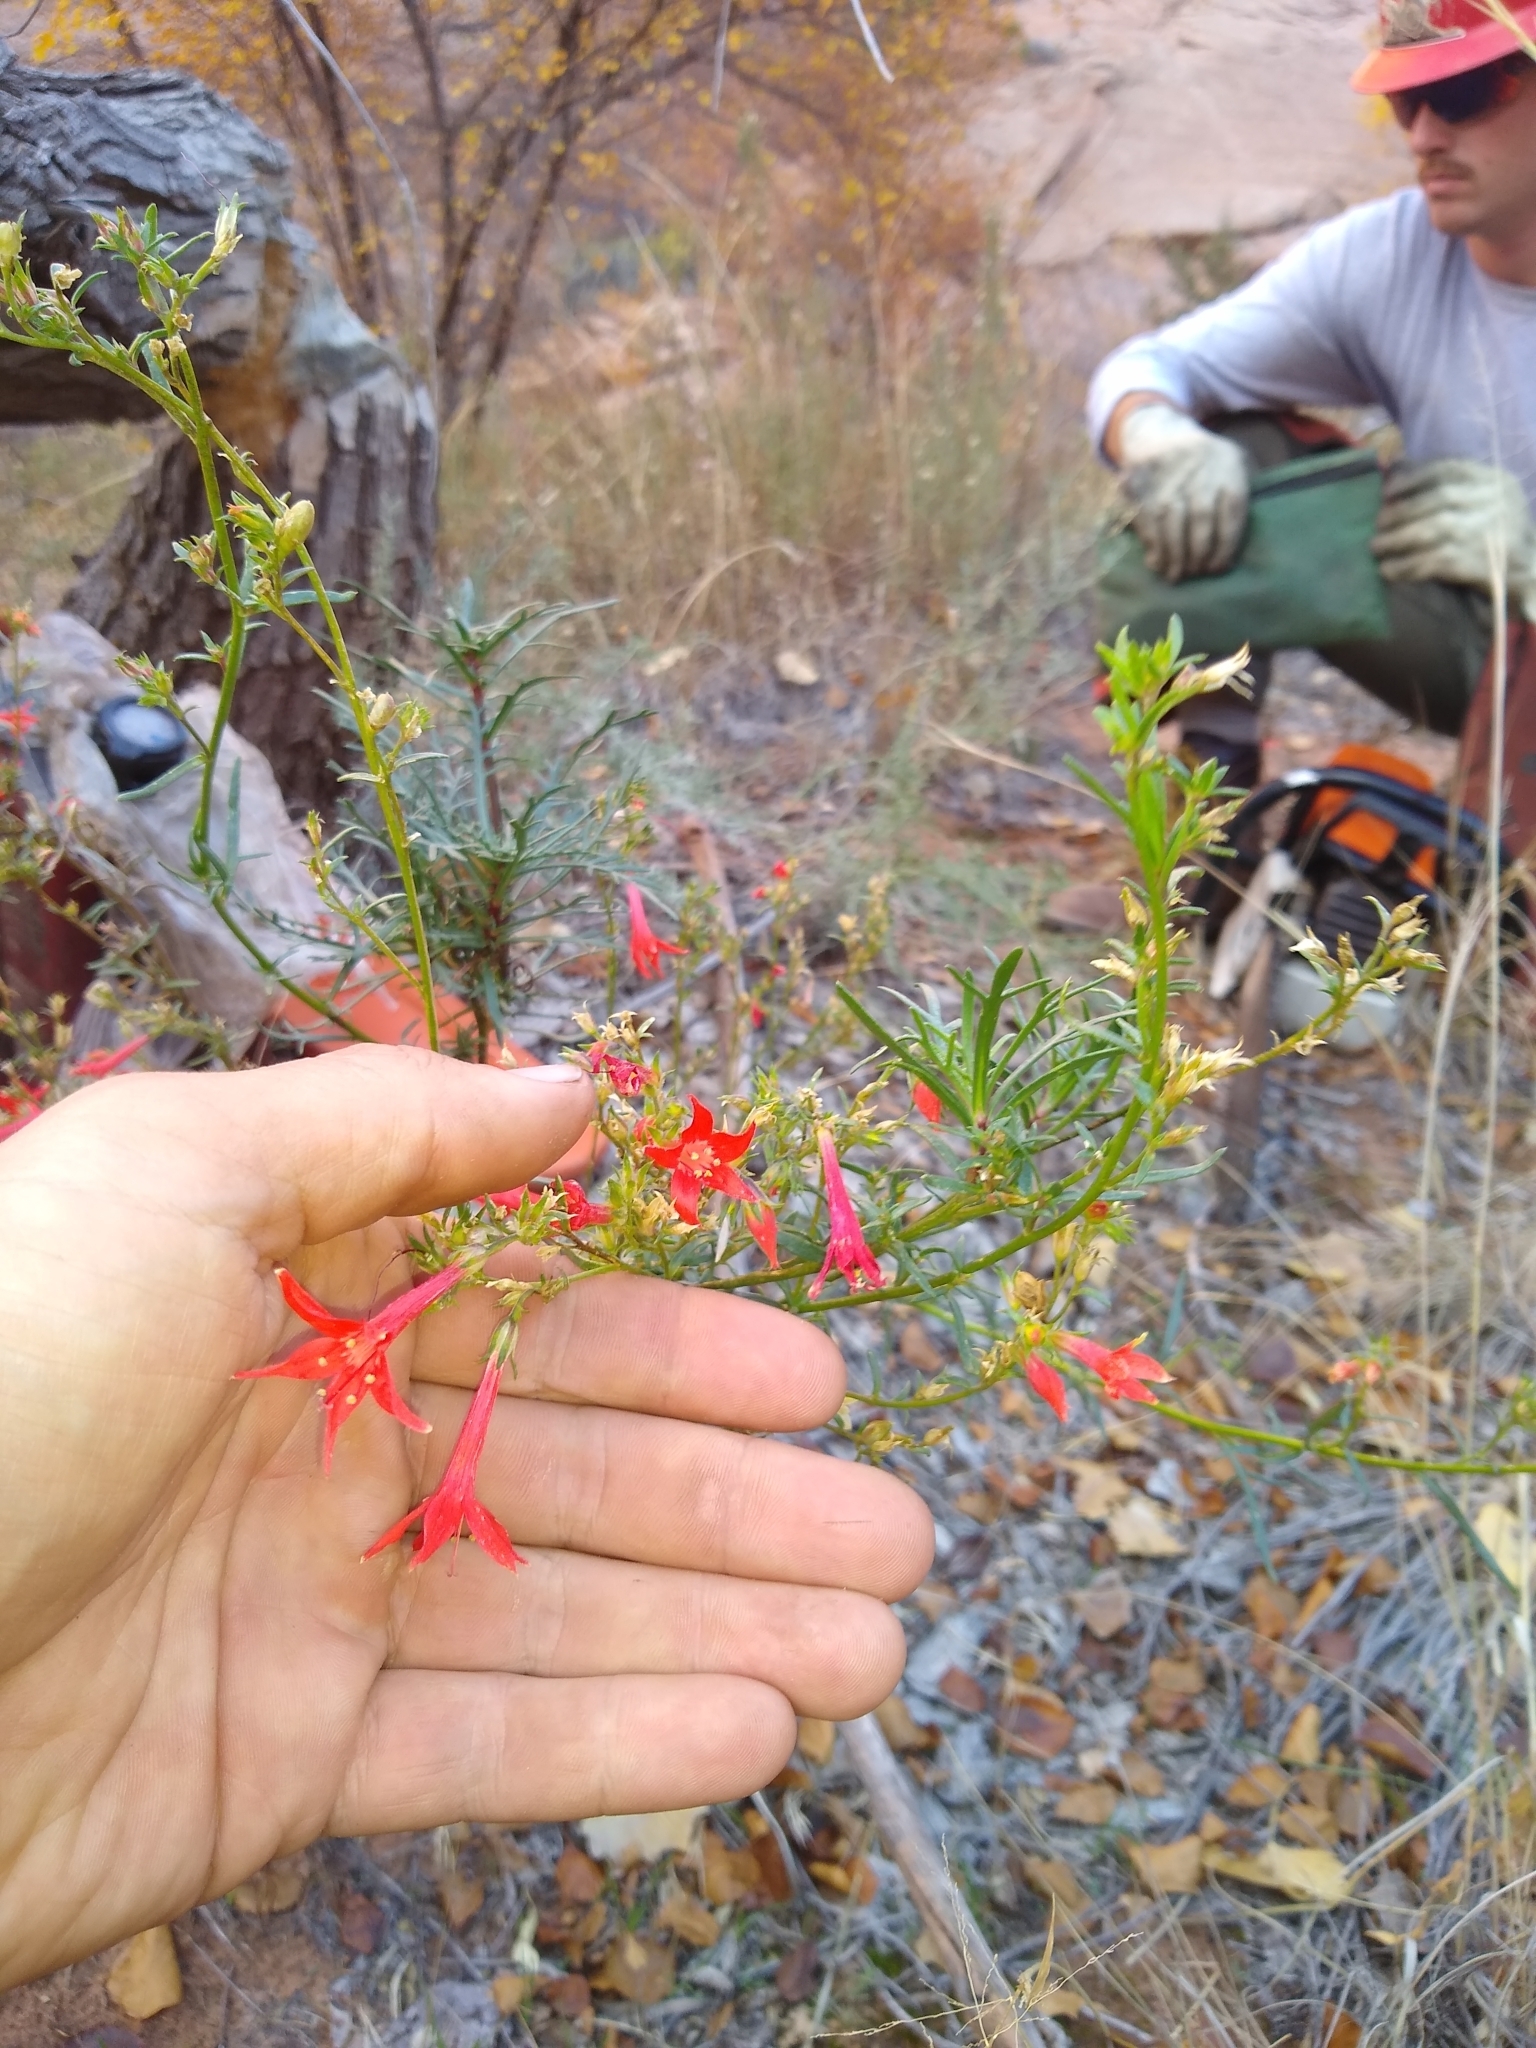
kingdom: Plantae
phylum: Tracheophyta
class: Magnoliopsida
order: Ericales
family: Polemoniaceae
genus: Ipomopsis
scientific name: Ipomopsis aggregata
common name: Scarlet gilia
